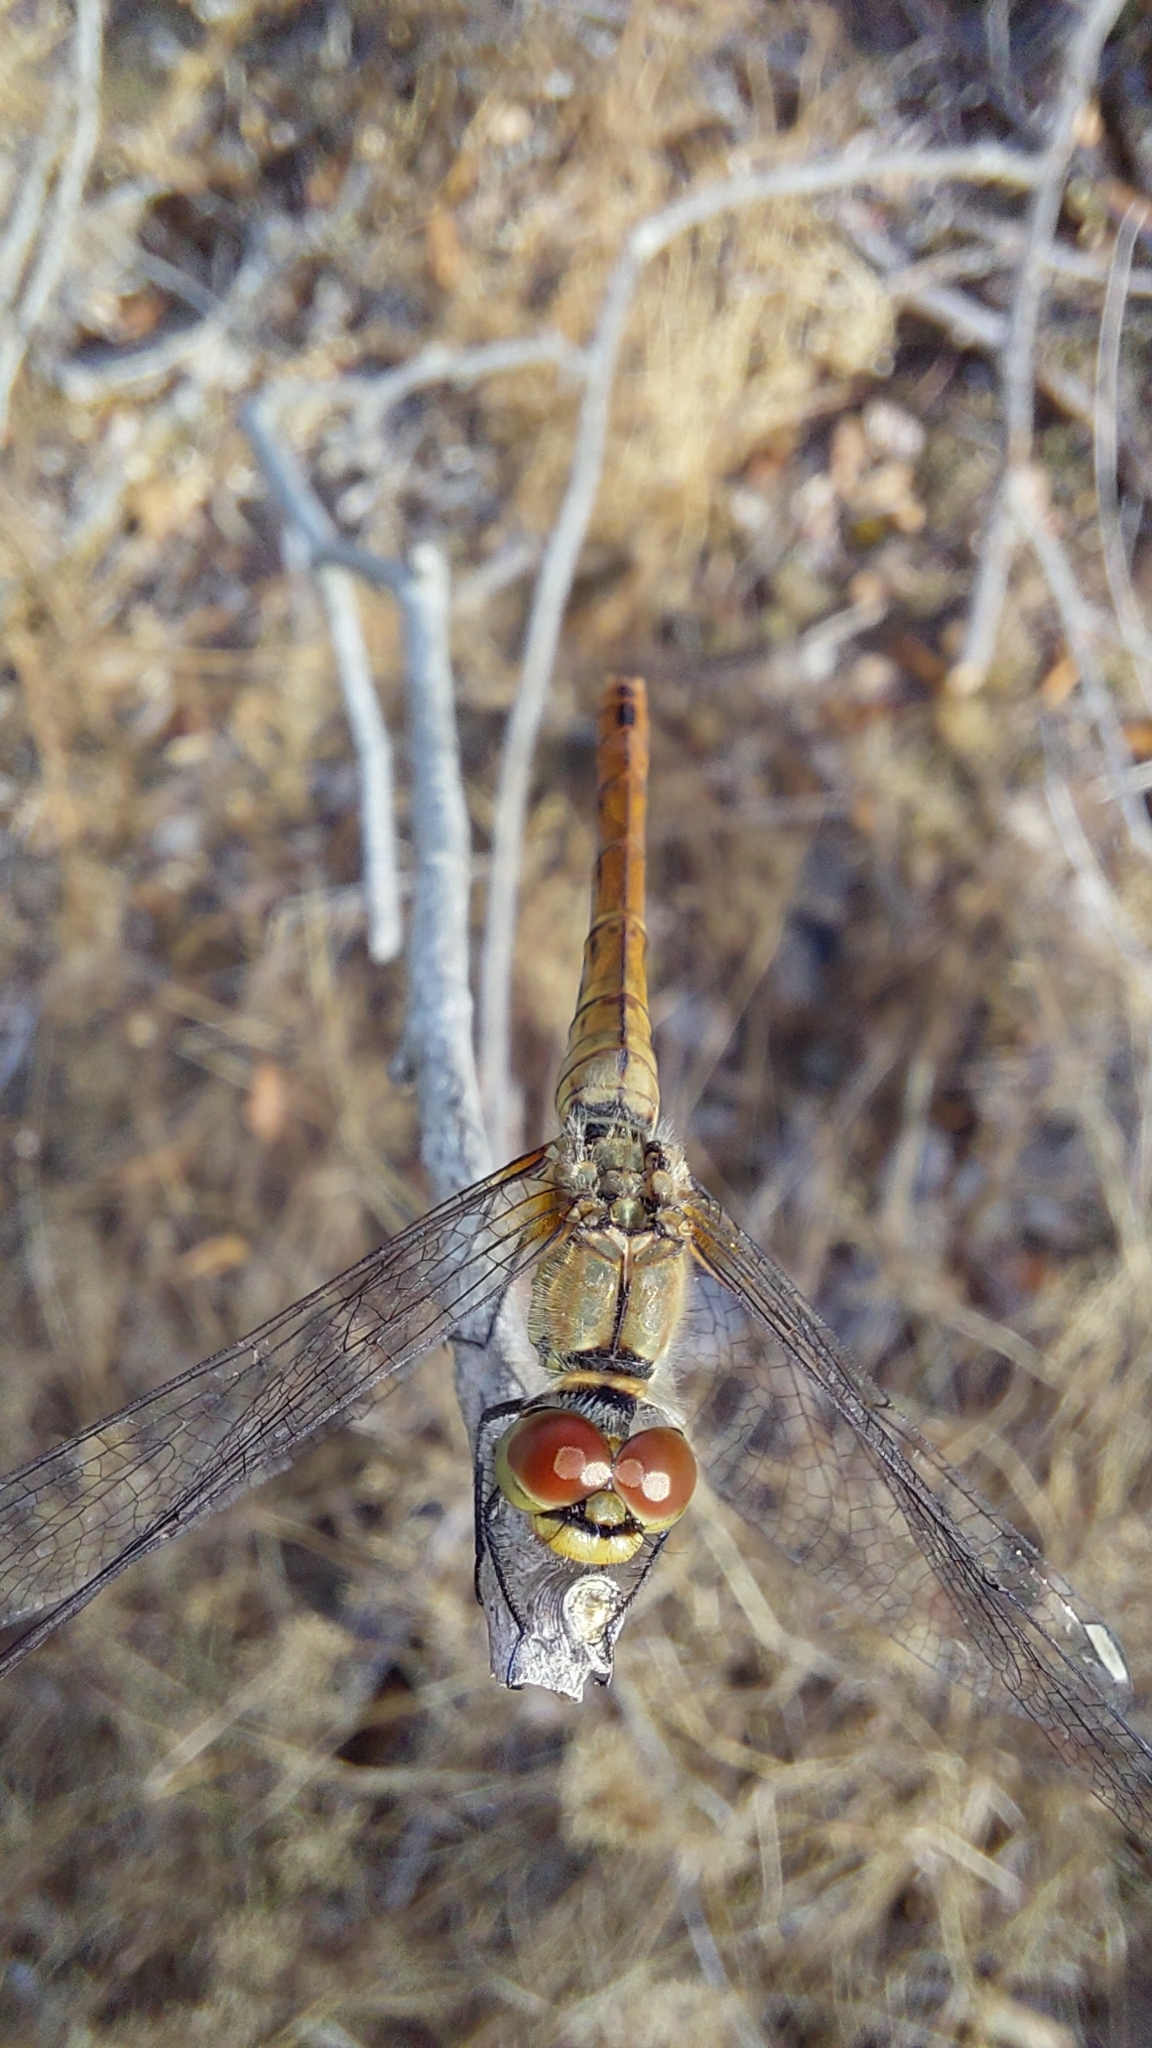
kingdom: Animalia
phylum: Arthropoda
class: Insecta
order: Odonata
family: Libellulidae
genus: Sympetrum
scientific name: Sympetrum sanguineum
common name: Ruddy darter
